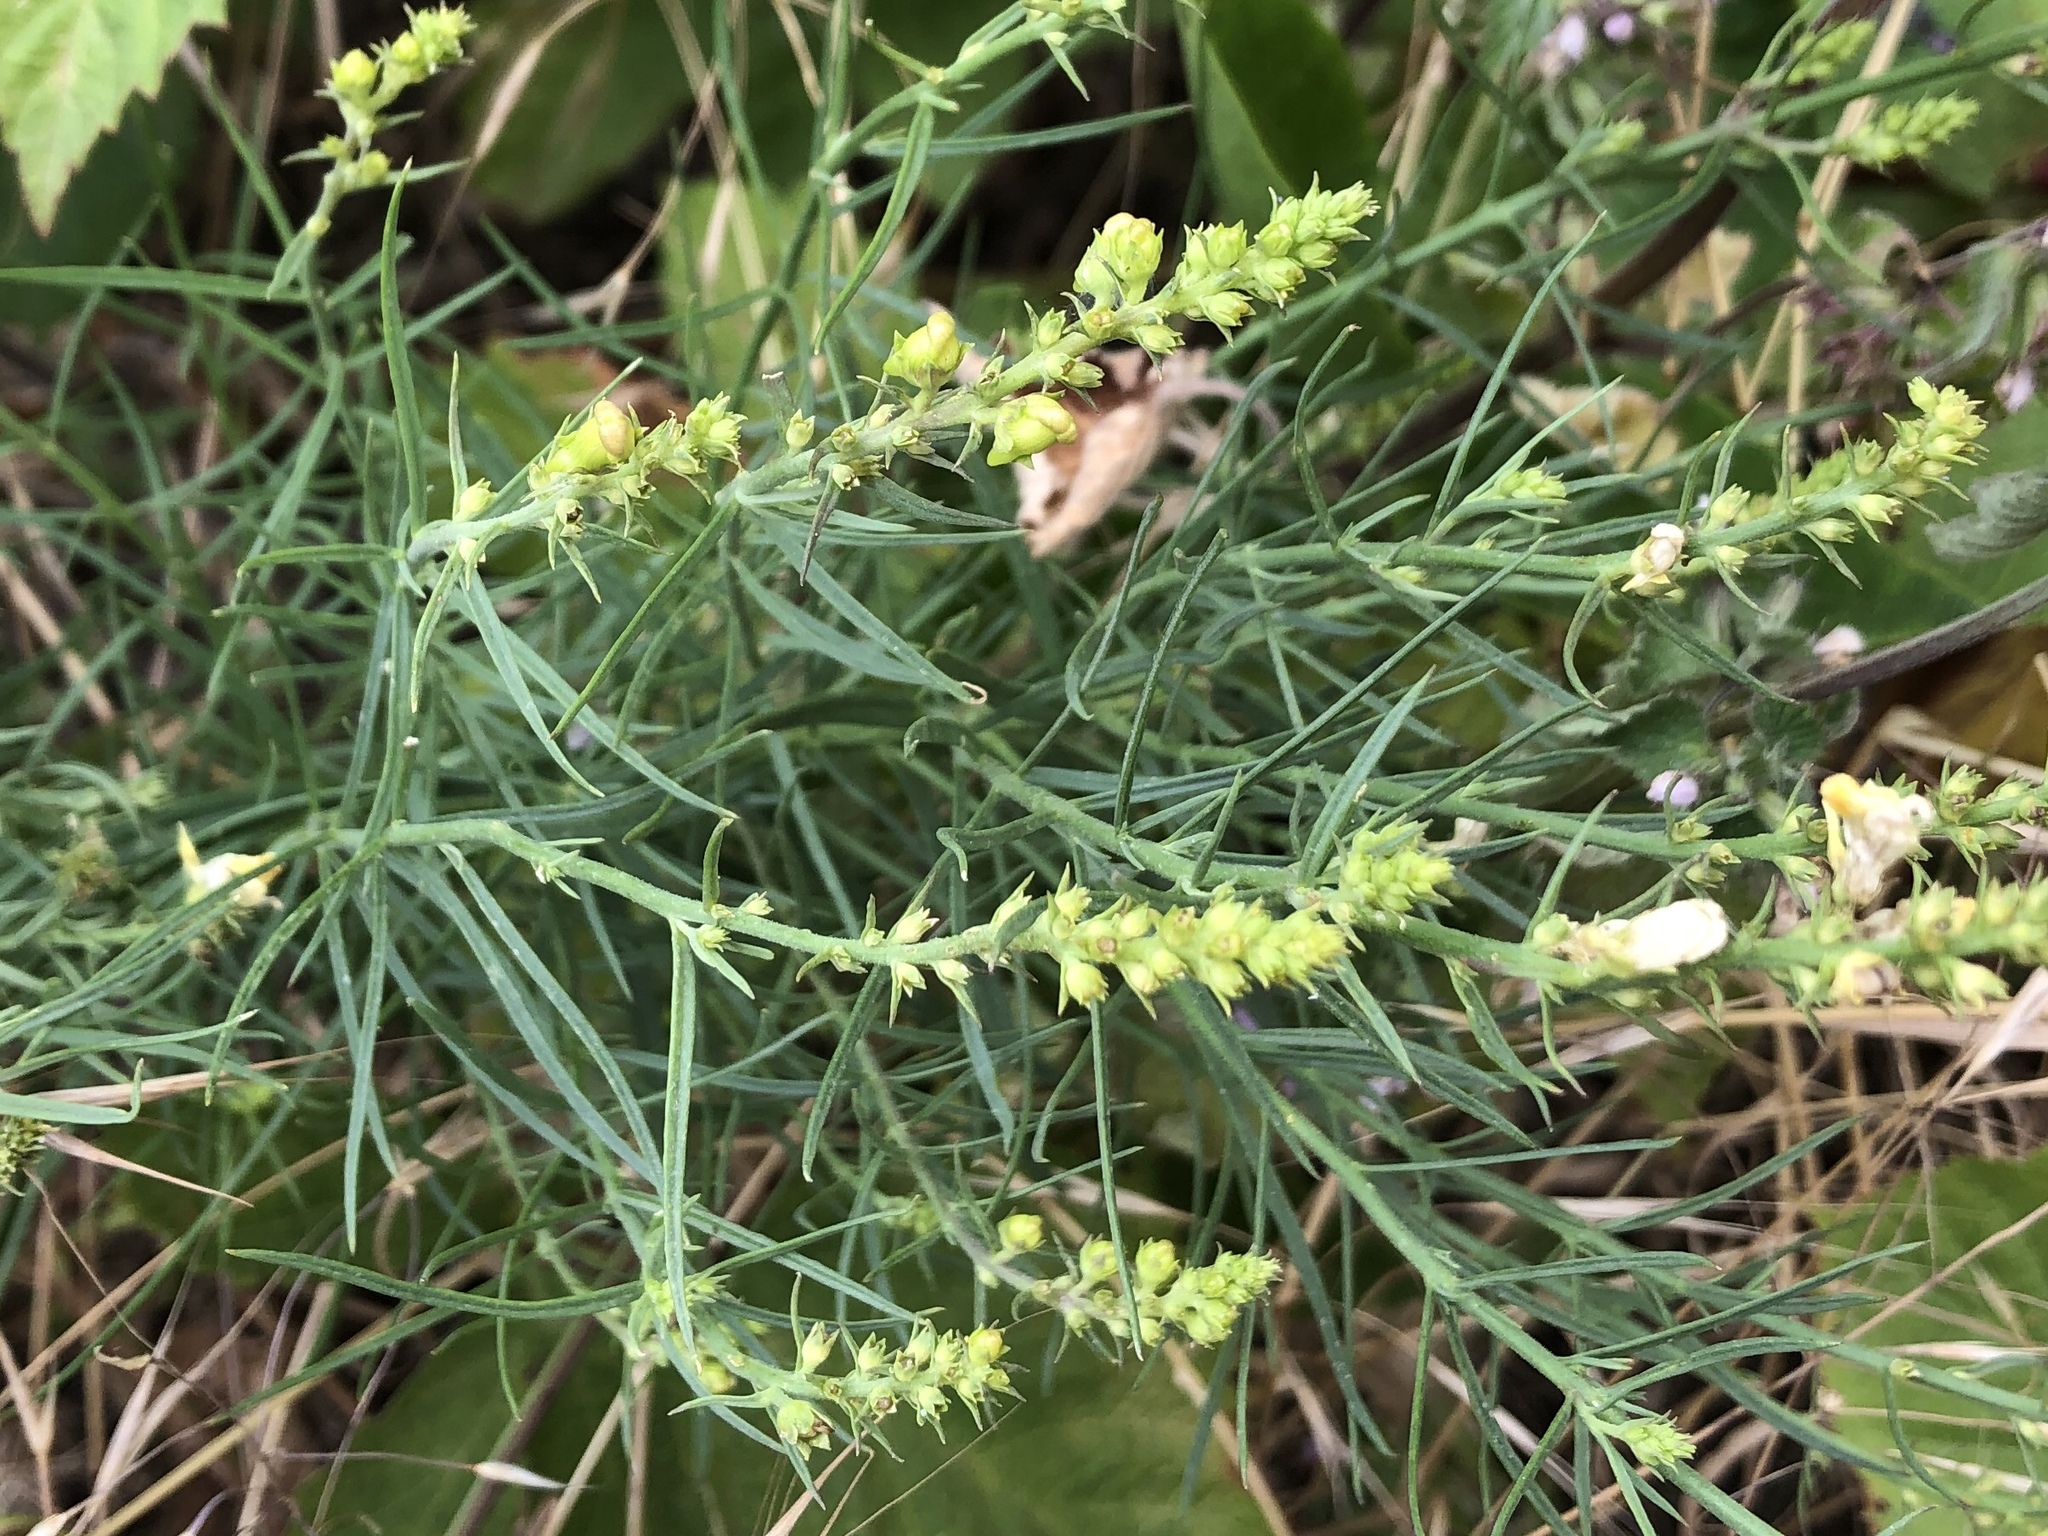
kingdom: Plantae
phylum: Tracheophyta
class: Magnoliopsida
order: Lamiales
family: Plantaginaceae
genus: Linaria
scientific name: Linaria vulgaris
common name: Butter and eggs
